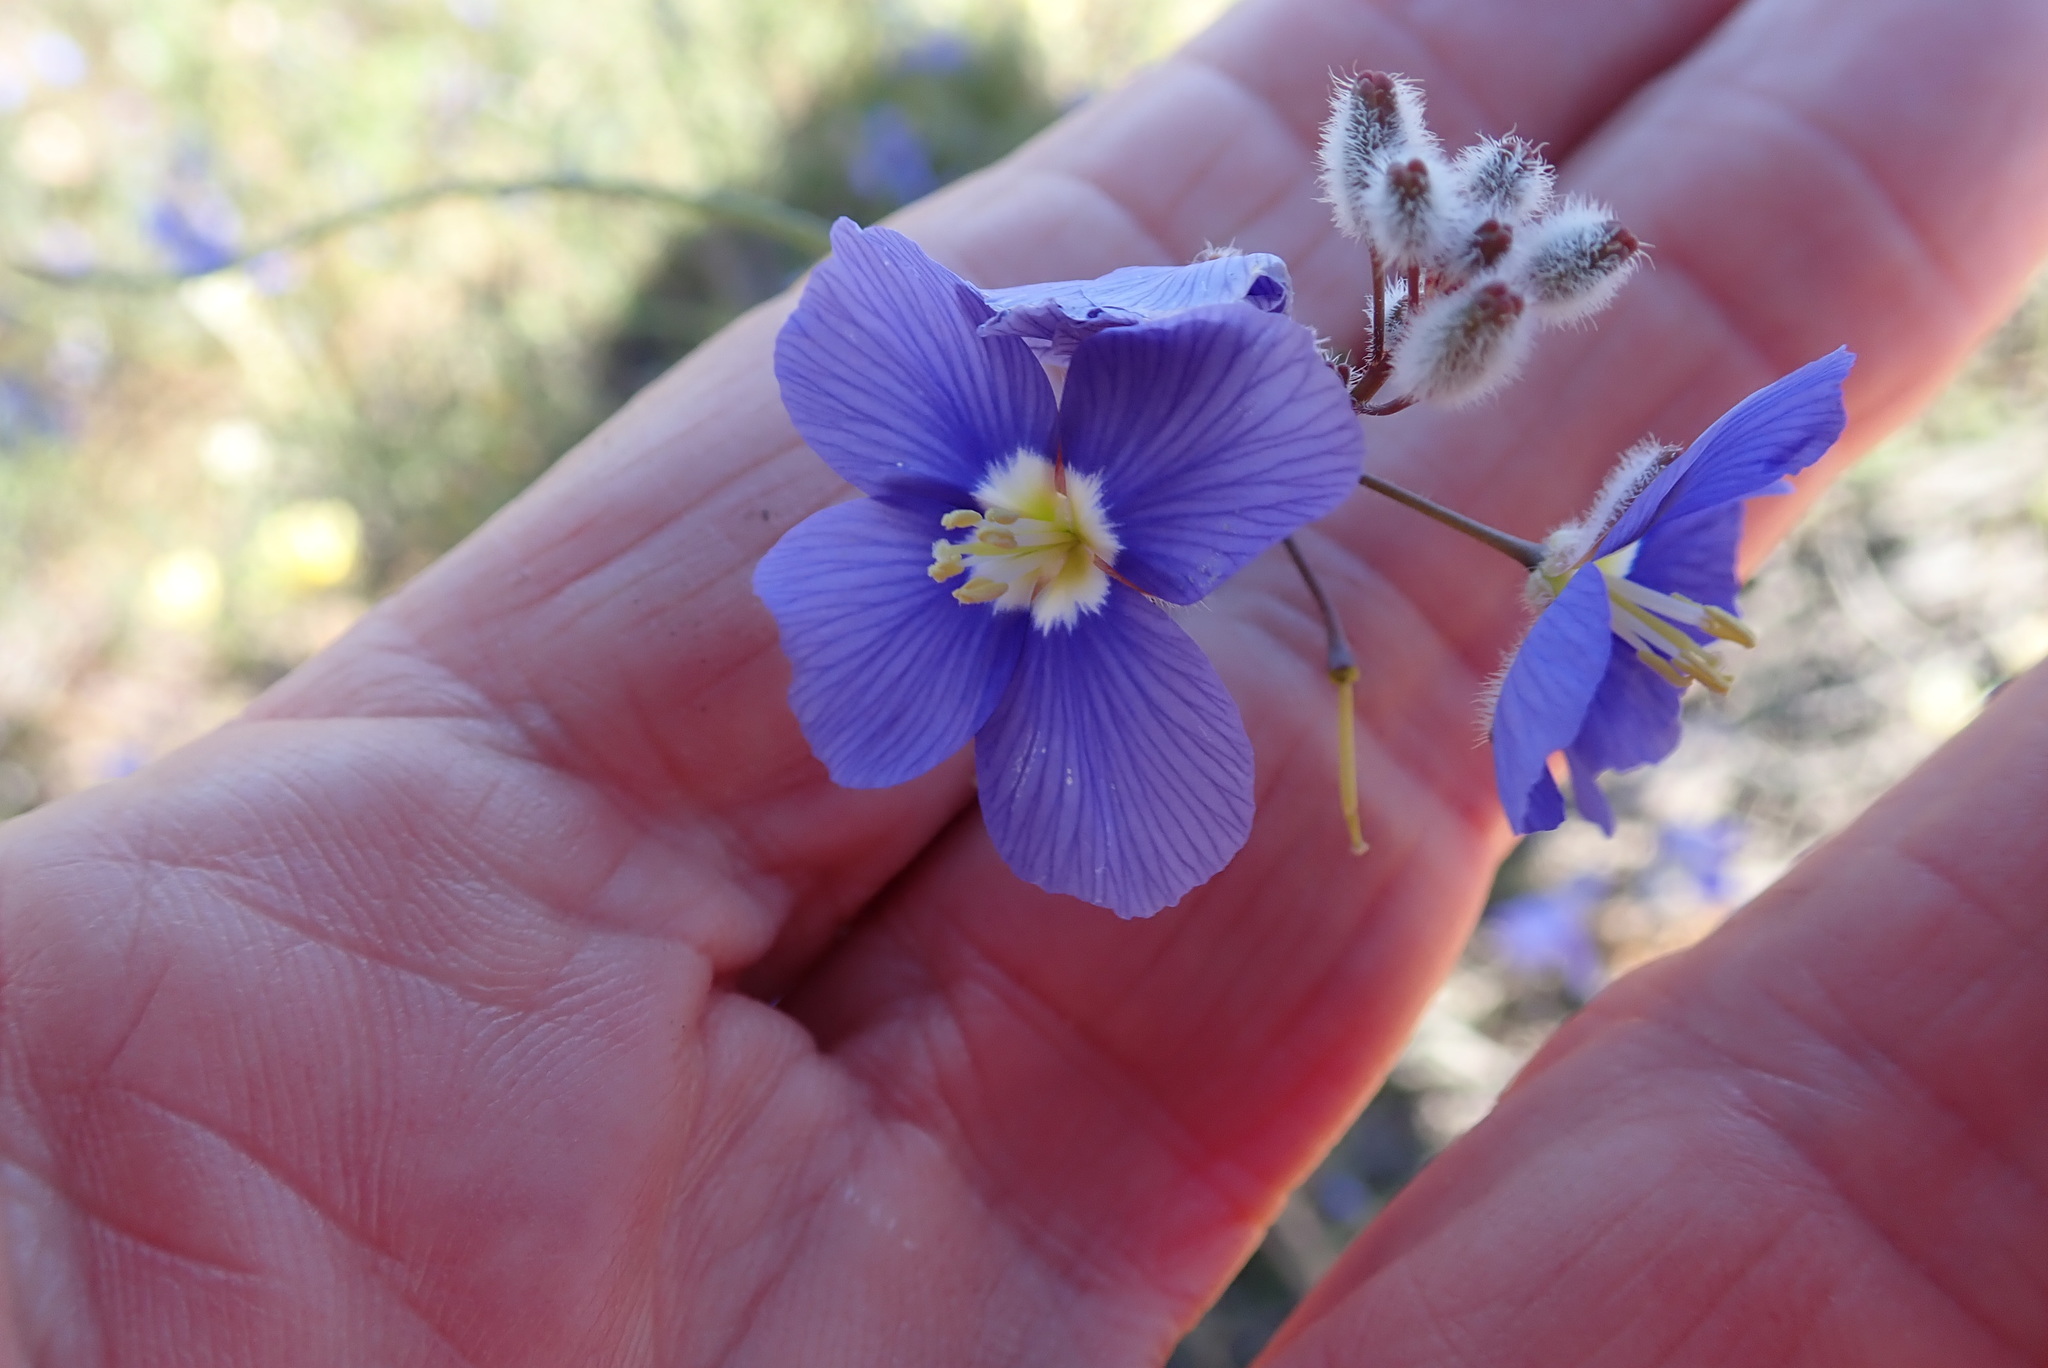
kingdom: Plantae
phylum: Tracheophyta
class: Magnoliopsida
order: Brassicales
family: Brassicaceae
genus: Heliophila
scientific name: Heliophila arenaria
